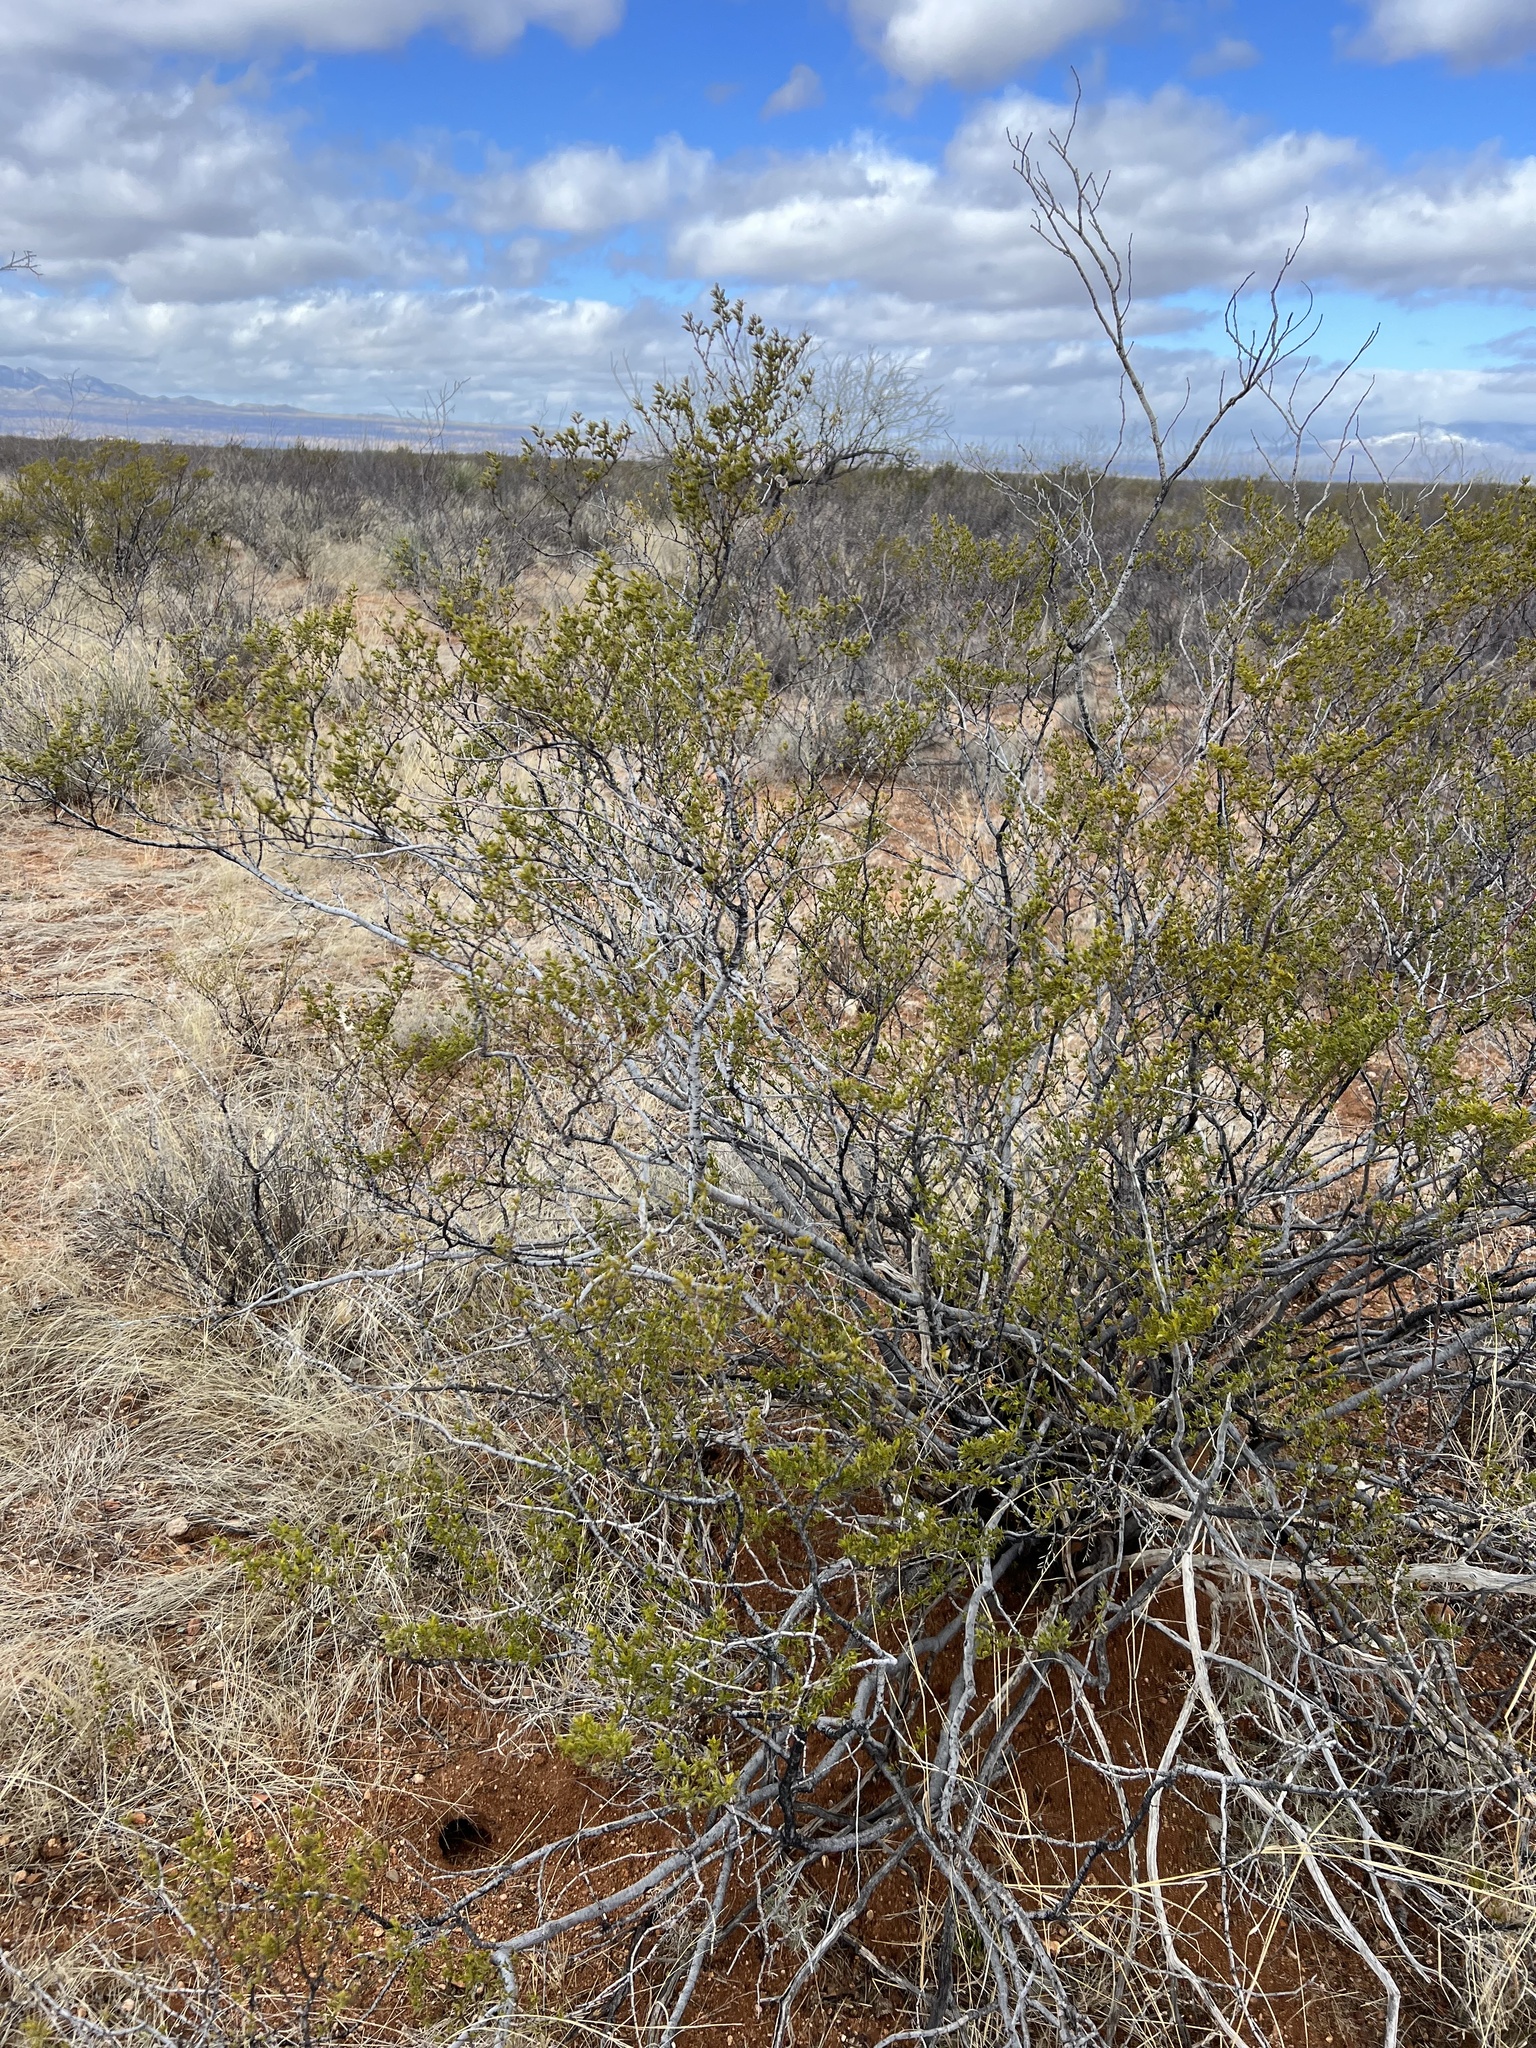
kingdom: Plantae
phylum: Tracheophyta
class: Magnoliopsida
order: Zygophyllales
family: Zygophyllaceae
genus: Larrea
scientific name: Larrea tridentata
